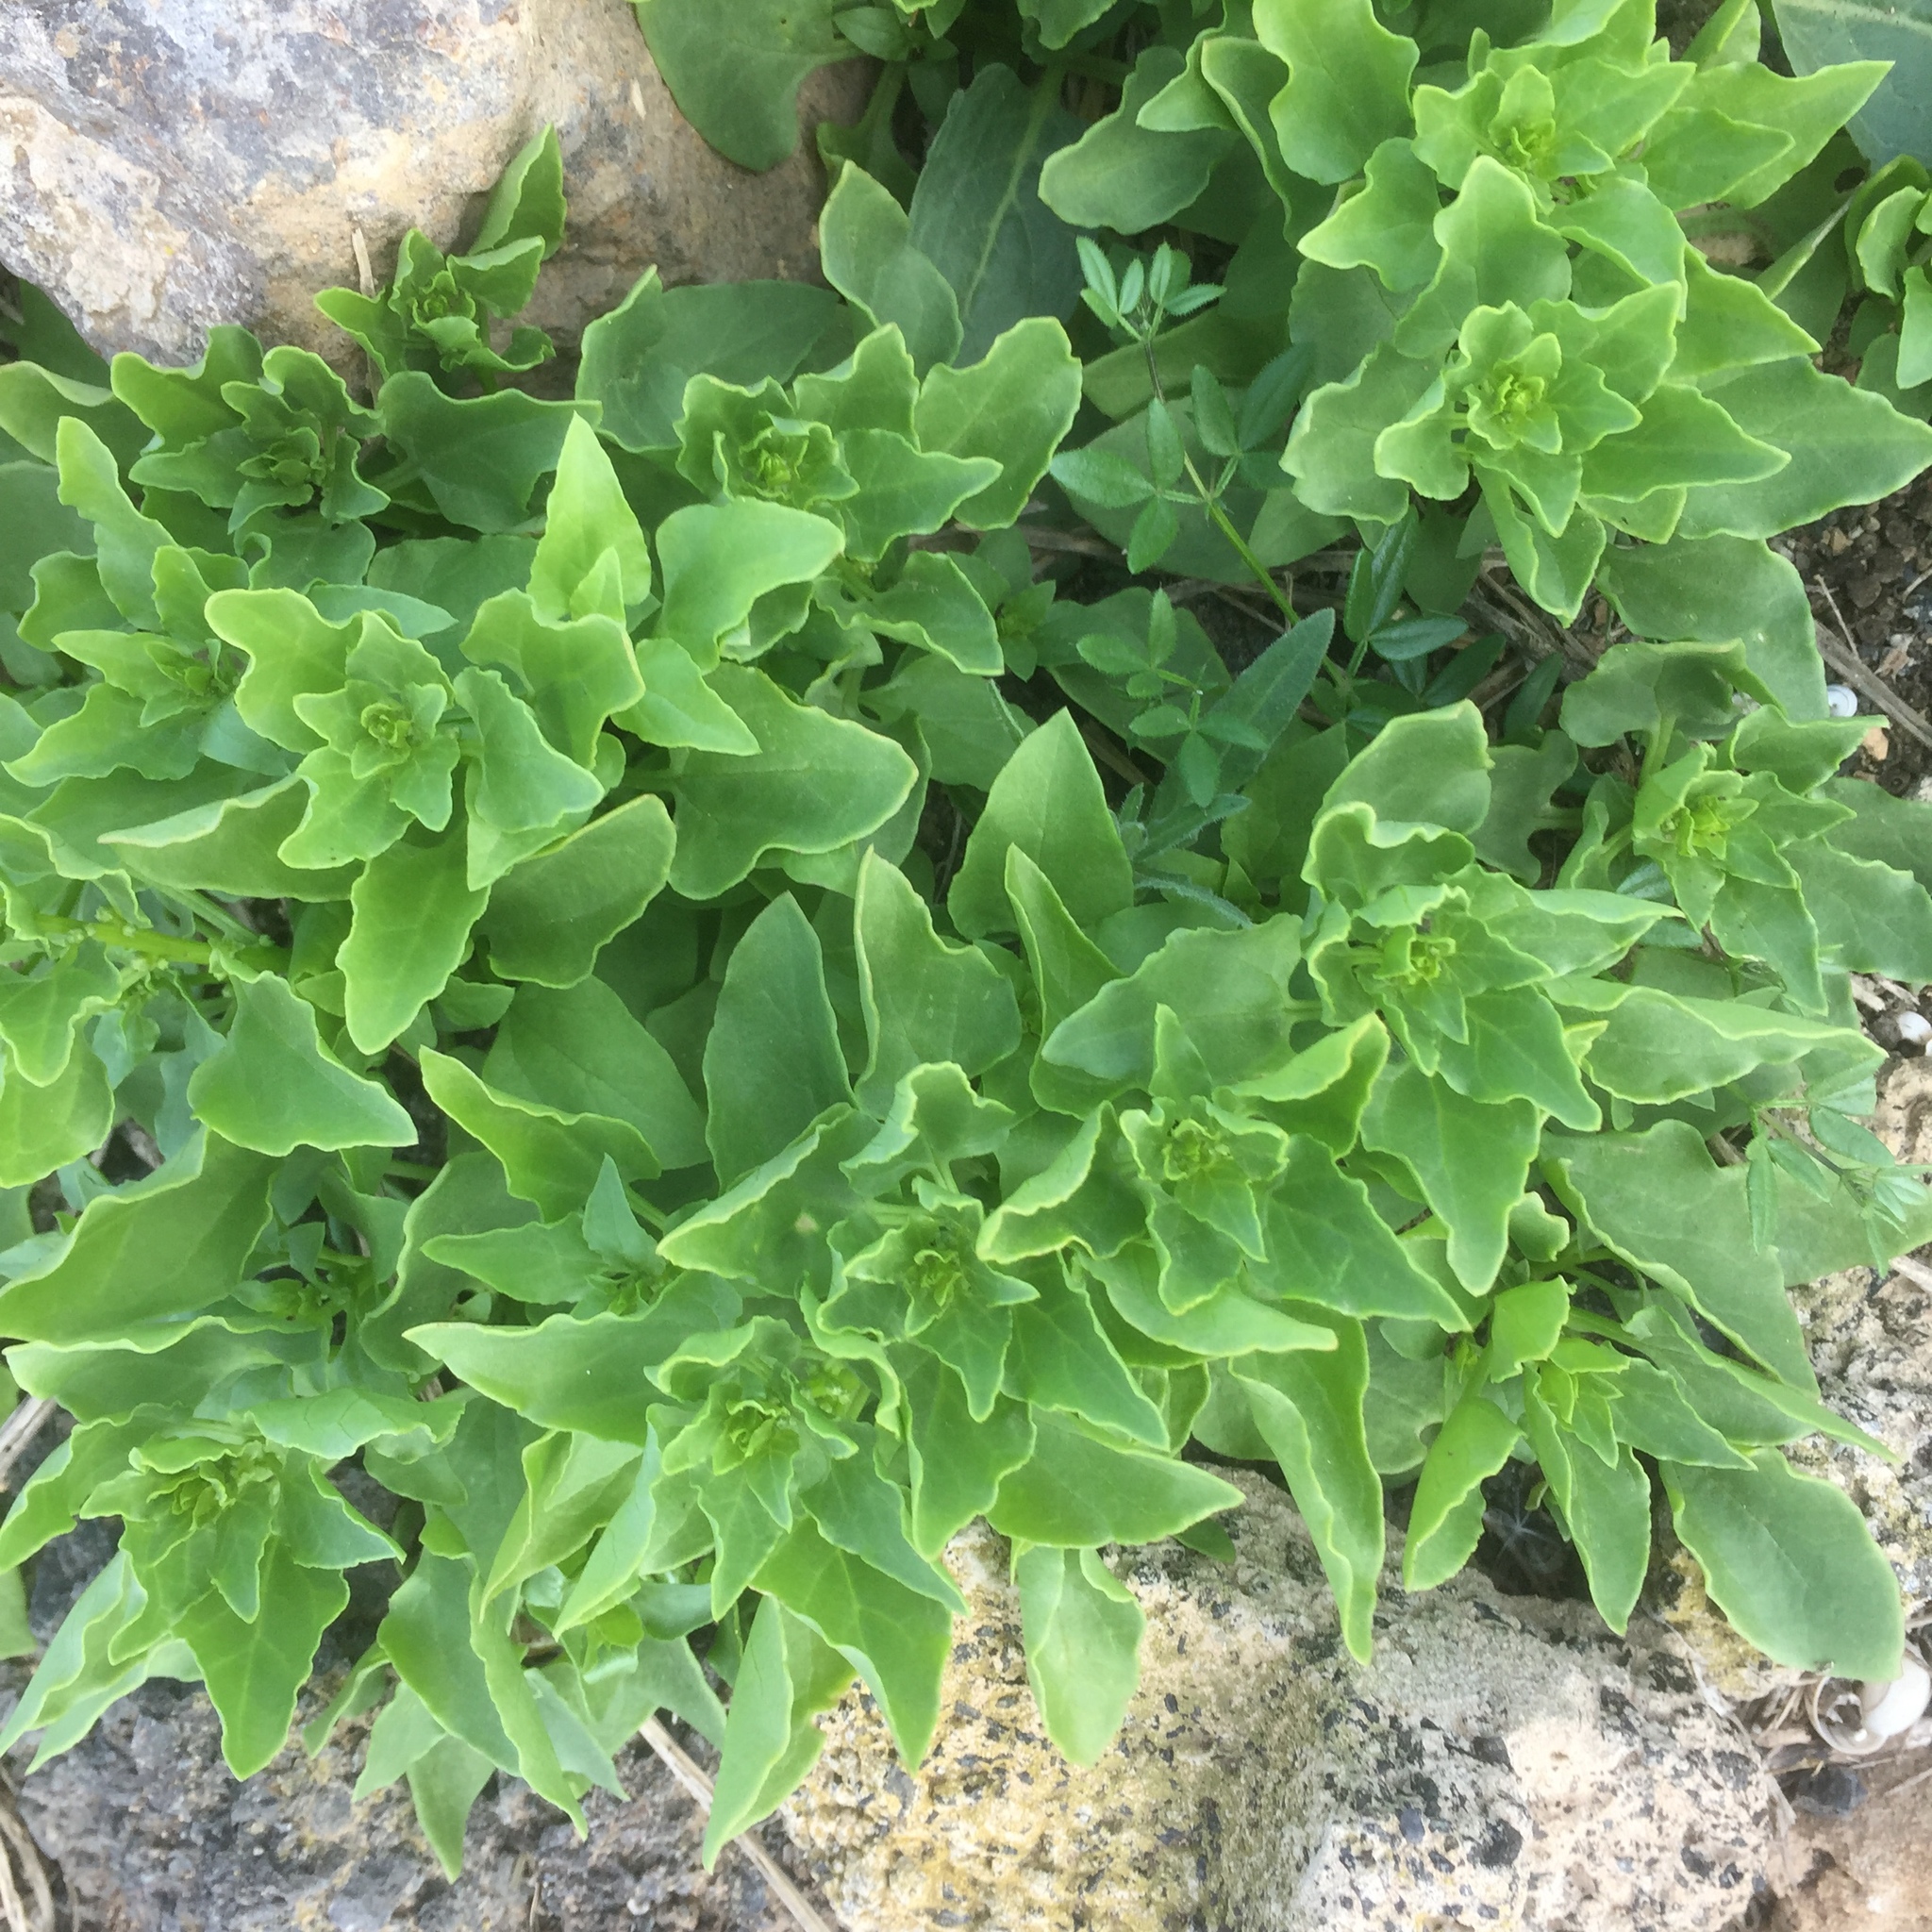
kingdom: Plantae
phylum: Tracheophyta
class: Magnoliopsida
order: Caryophyllales
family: Aizoaceae
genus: Tetragonia
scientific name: Tetragonia tetragonoides
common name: New zealand-spinach
